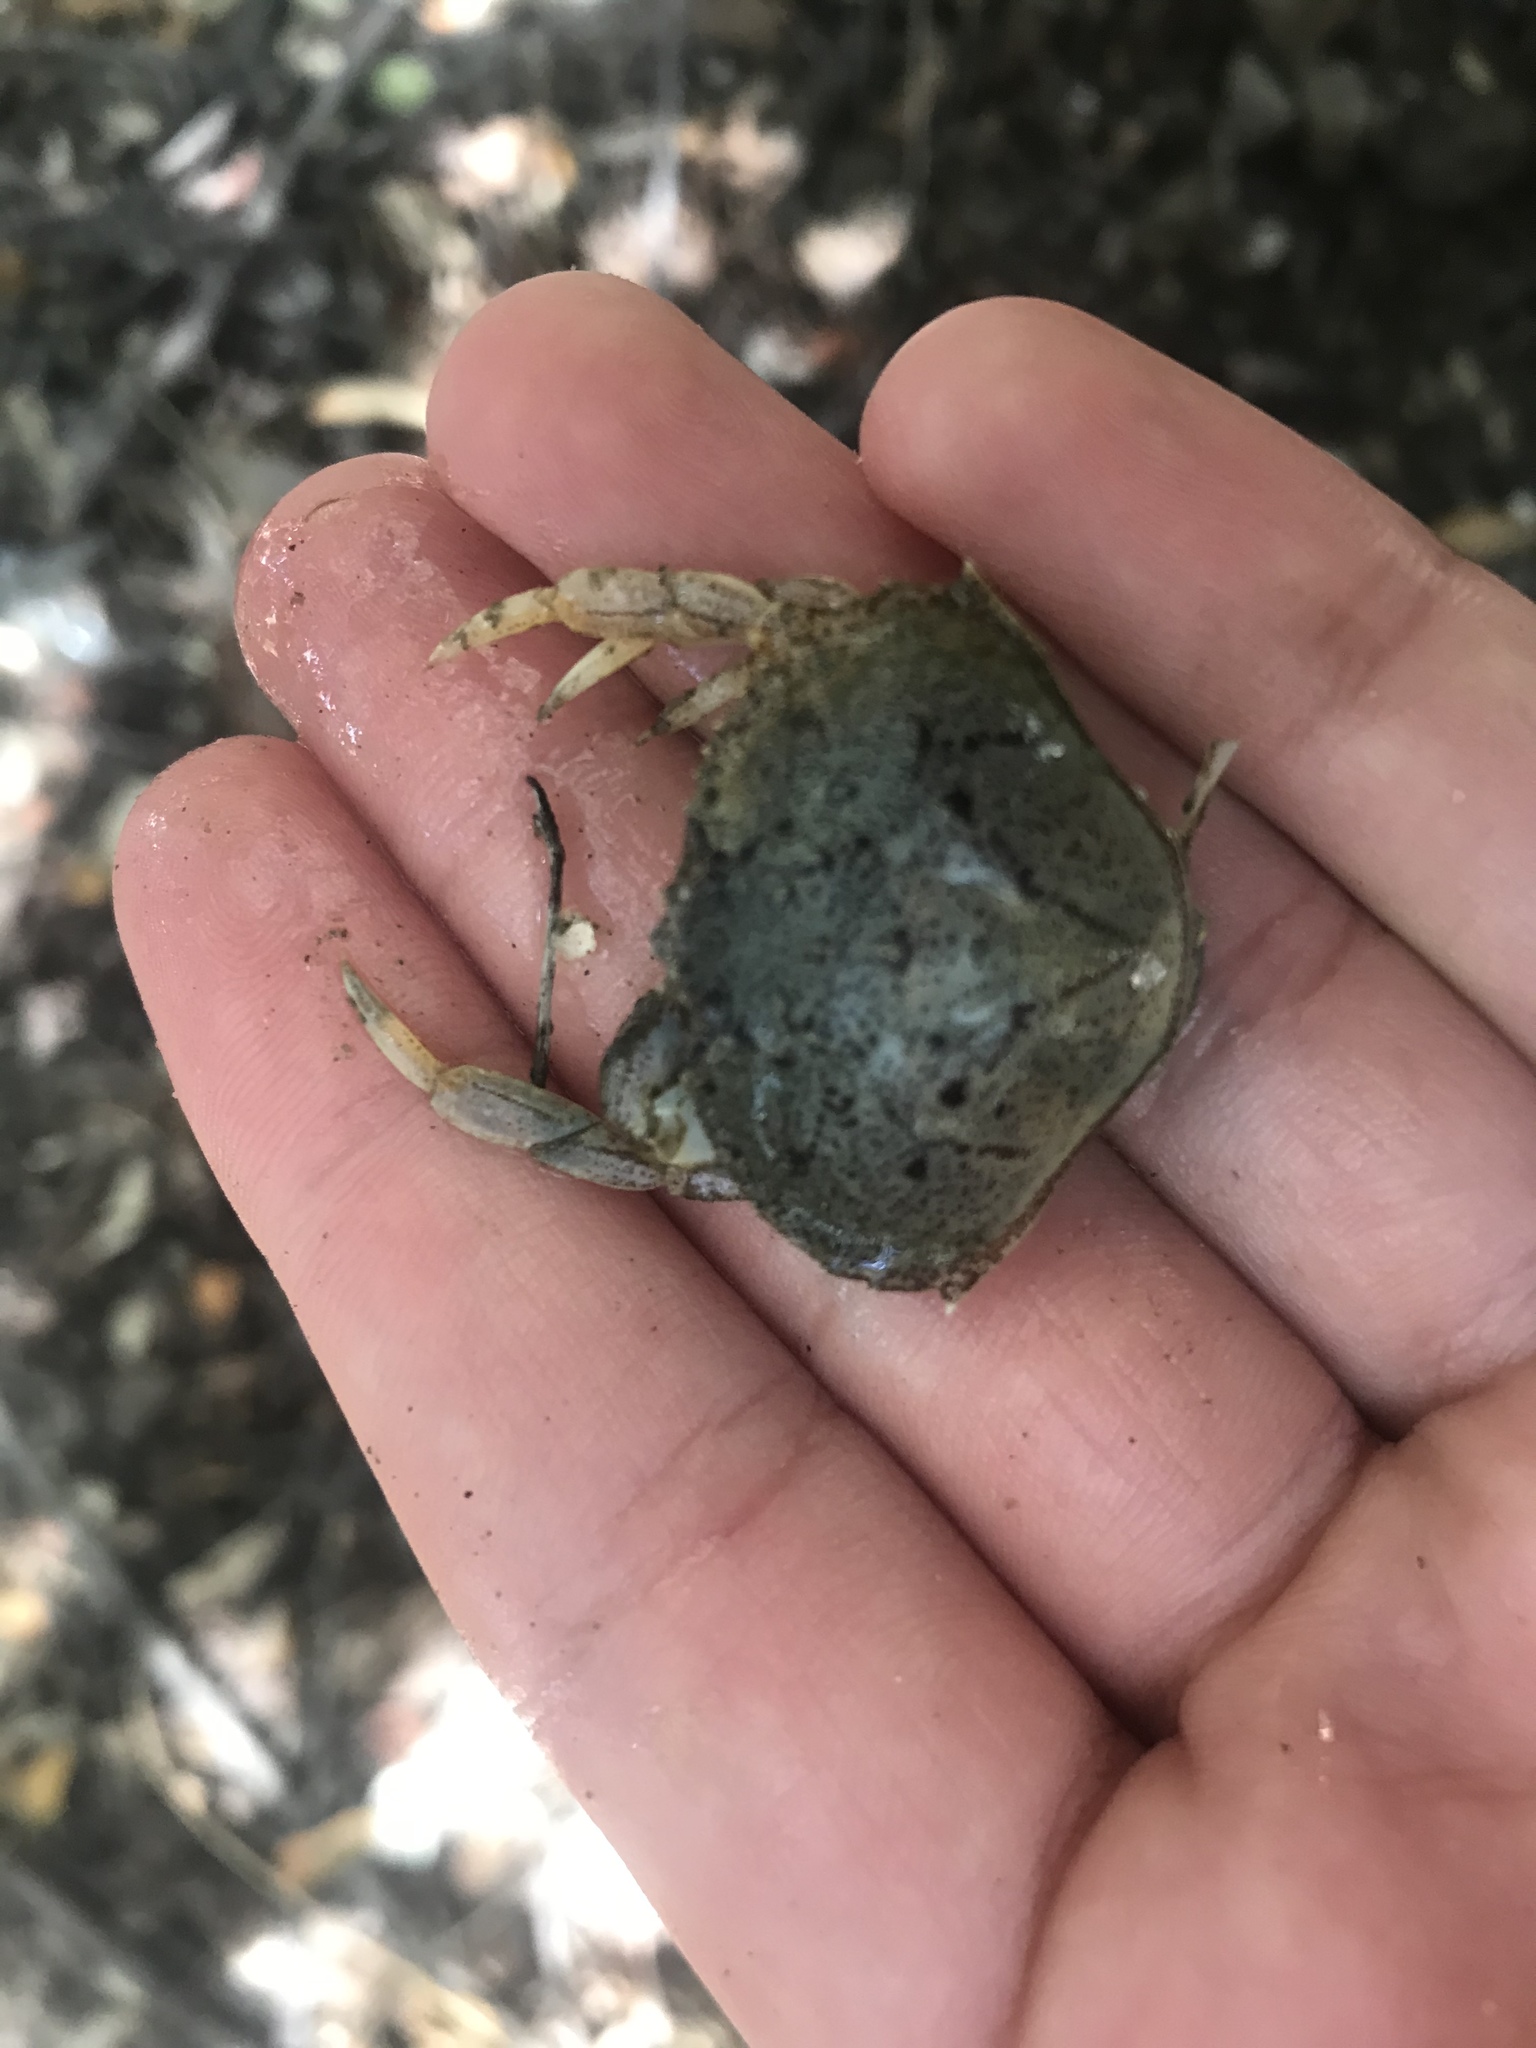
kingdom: Animalia
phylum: Arthropoda
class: Malacostraca
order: Decapoda
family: Cancridae
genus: Metacarcinus
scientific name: Metacarcinus magister
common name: Californian crab
